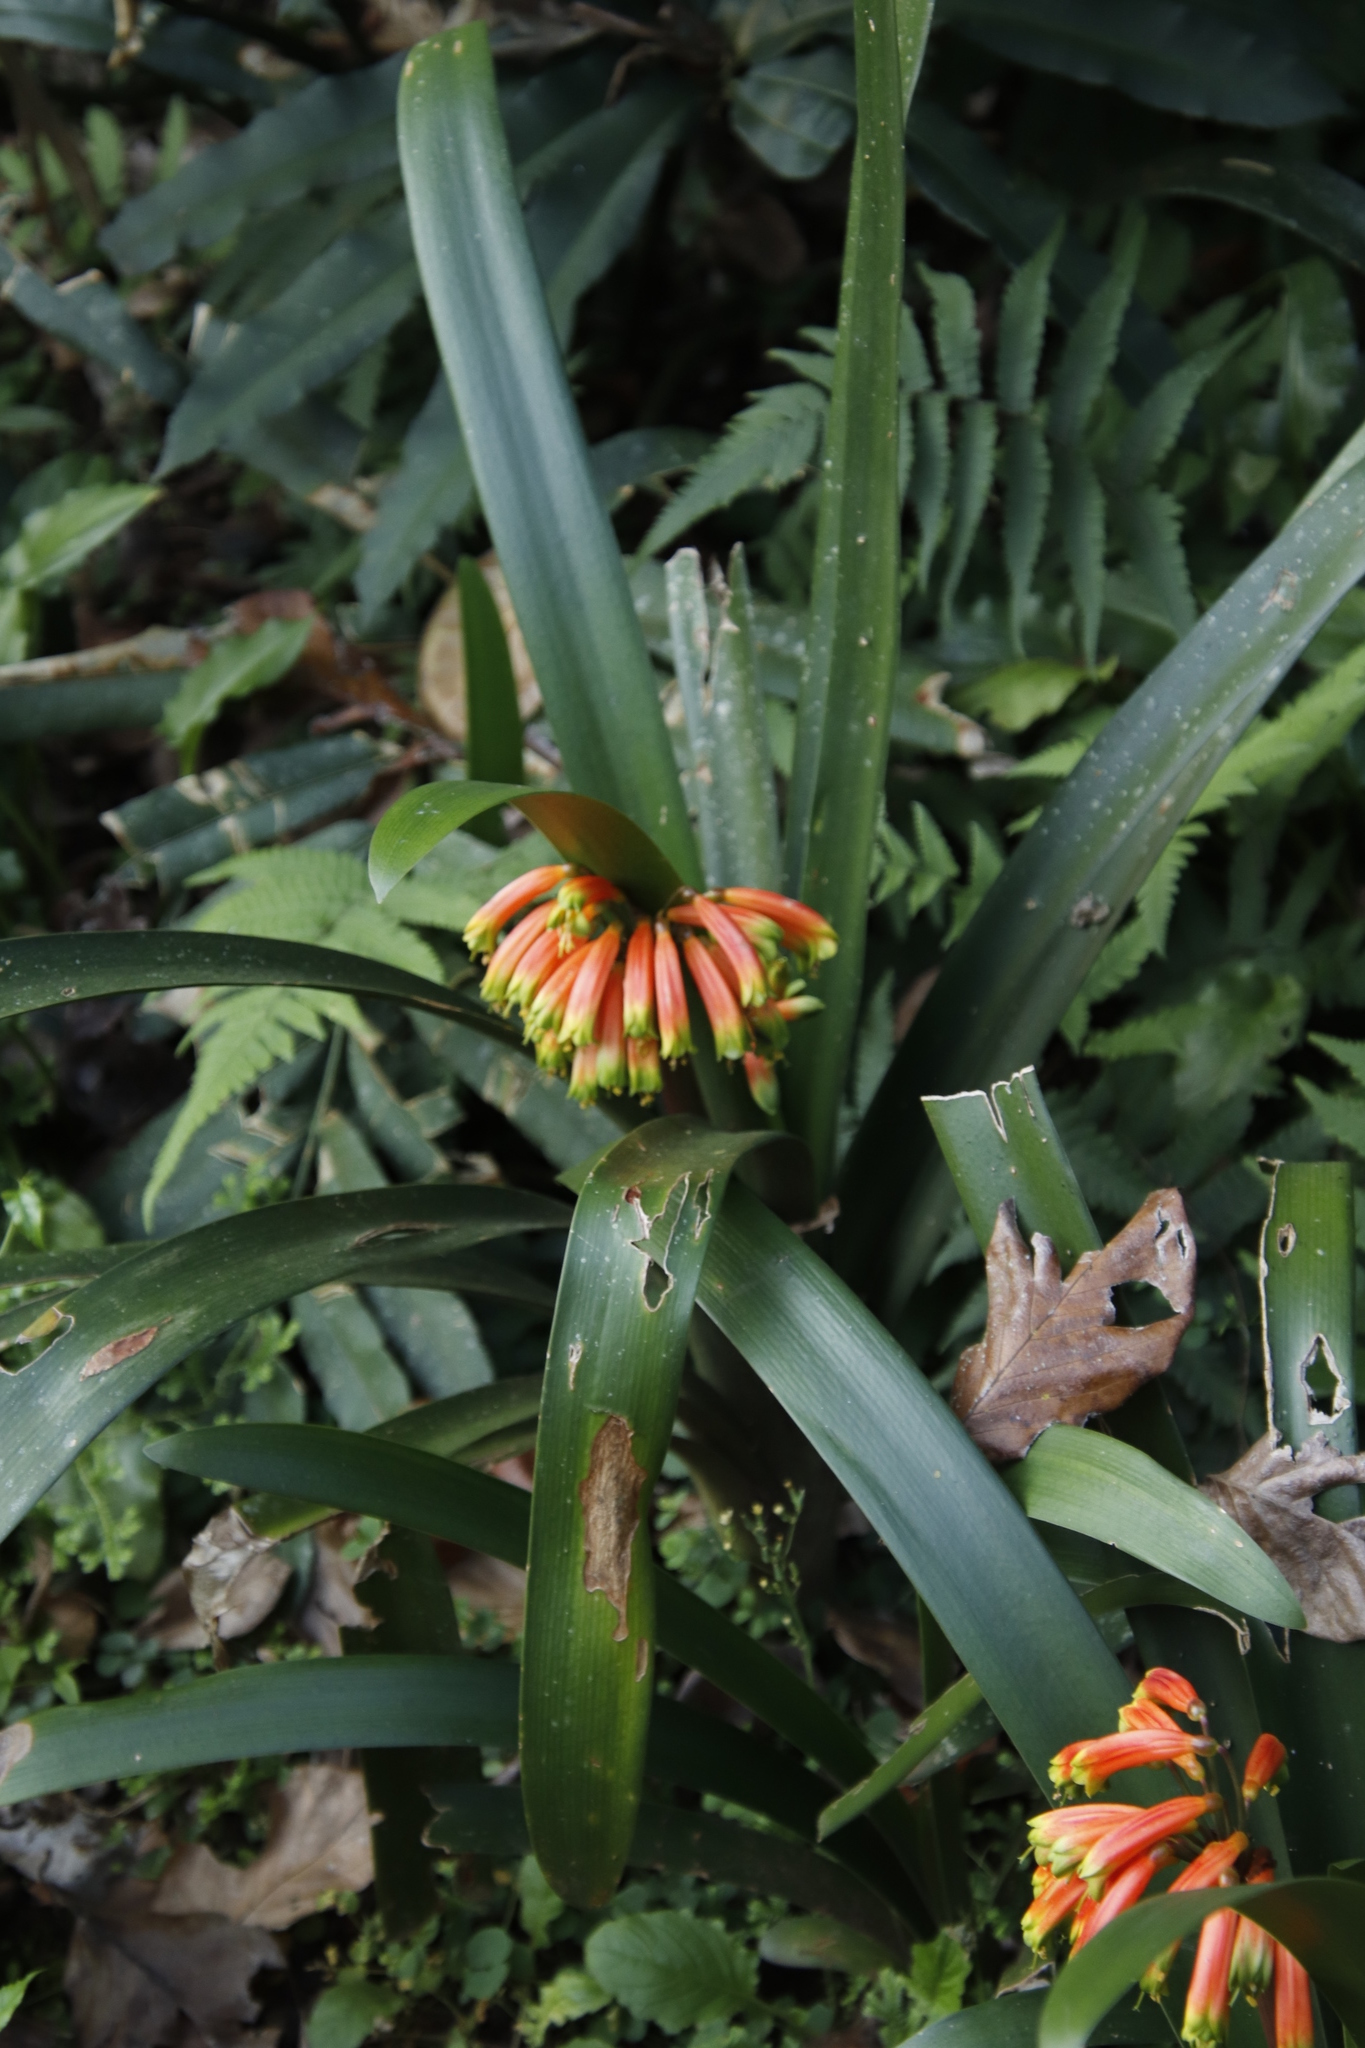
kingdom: Plantae
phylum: Tracheophyta
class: Liliopsida
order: Asparagales
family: Amaryllidaceae
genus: Clivia
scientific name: Clivia gardenii
